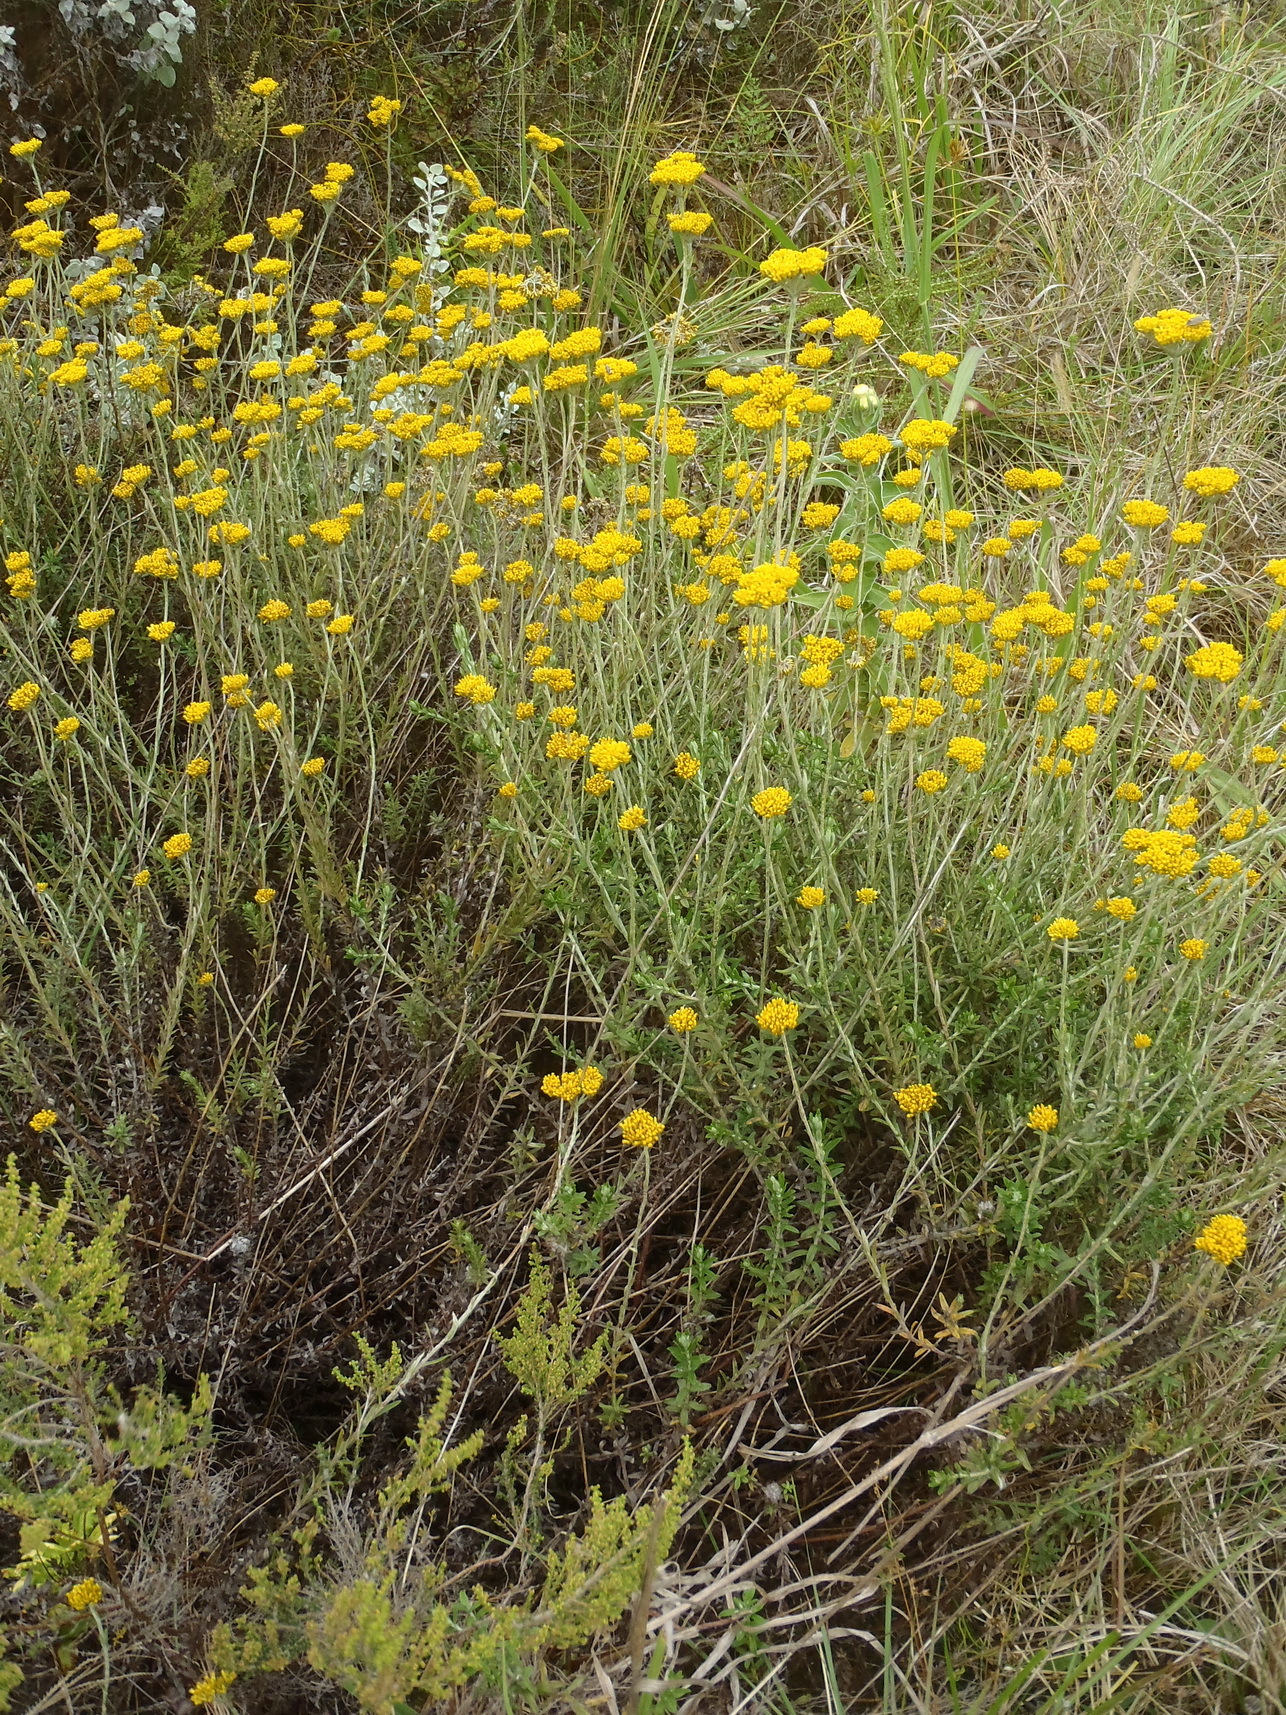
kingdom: Plantae
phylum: Tracheophyta
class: Magnoliopsida
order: Asterales
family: Asteraceae
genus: Helichrysum
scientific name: Helichrysum cymosum
